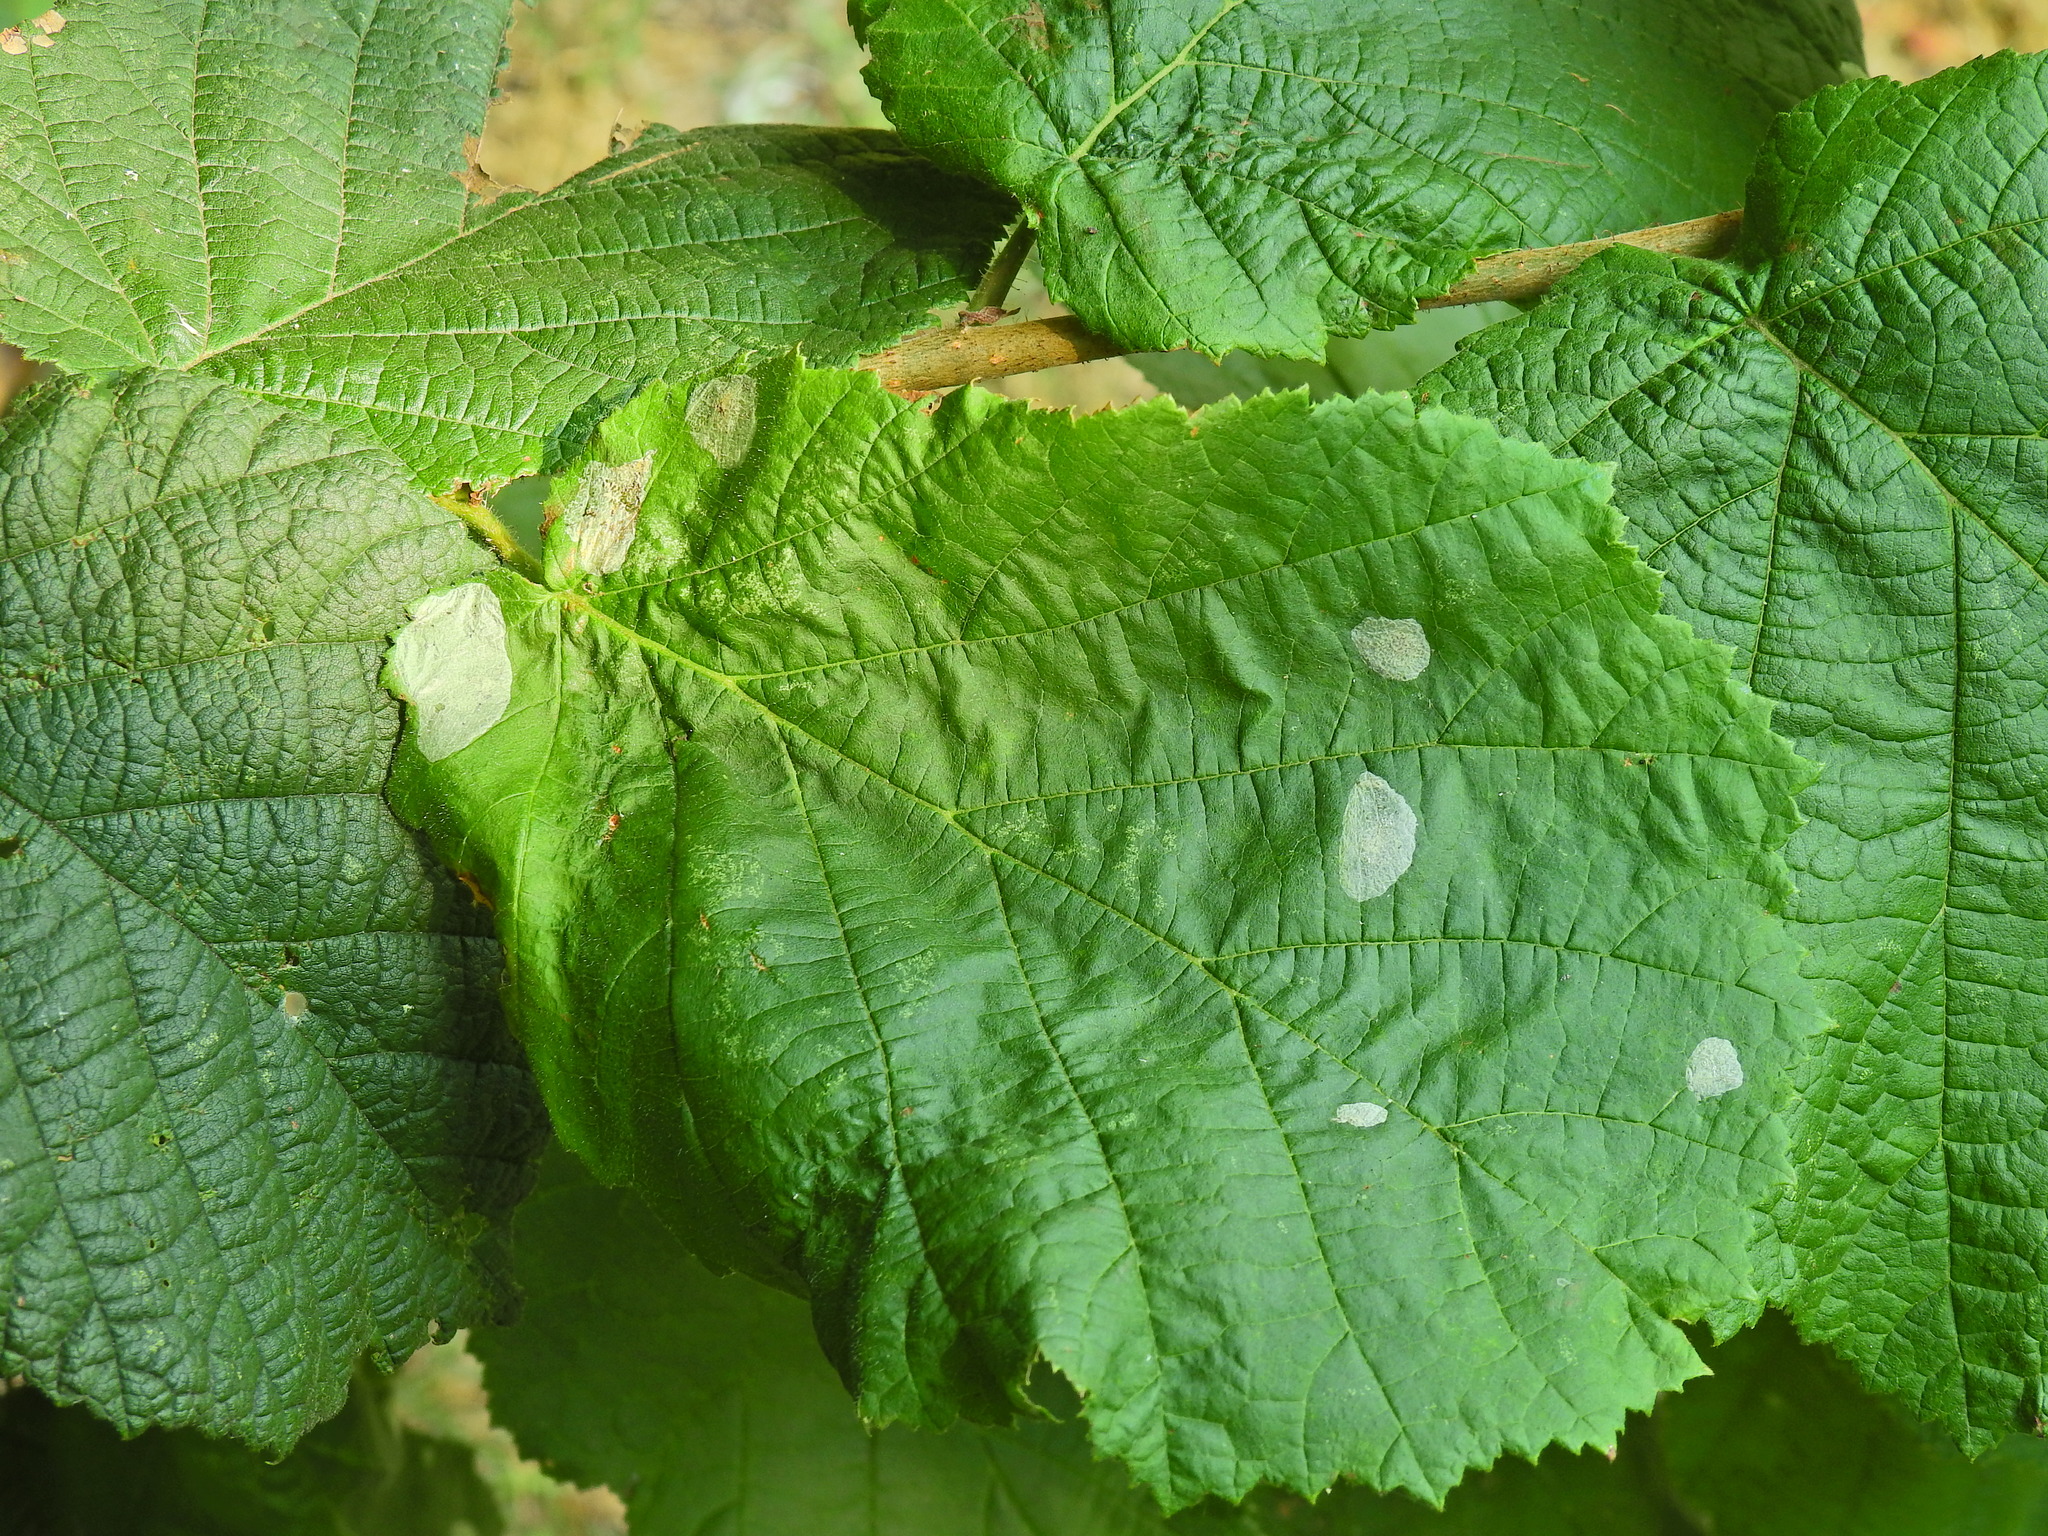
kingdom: Animalia
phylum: Arthropoda
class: Insecta
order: Lepidoptera
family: Gracillariidae
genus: Phyllonorycter
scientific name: Phyllonorycter coryli
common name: Nut-leaf blister moth
